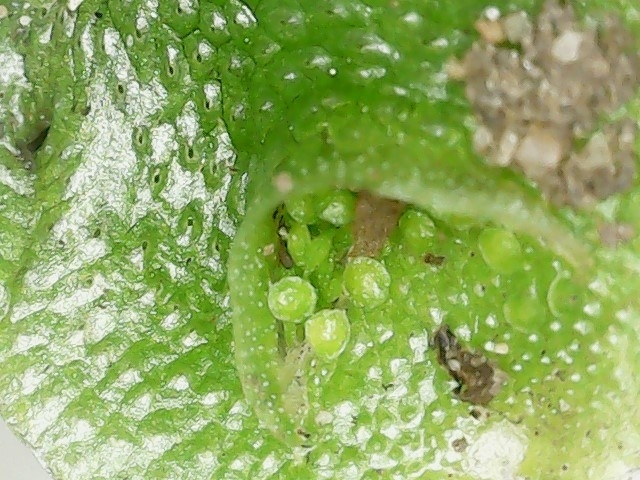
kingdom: Plantae
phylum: Marchantiophyta
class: Marchantiopsida
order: Lunulariales
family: Lunulariaceae
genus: Lunularia
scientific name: Lunularia cruciata
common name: Crescent-cup liverwort
